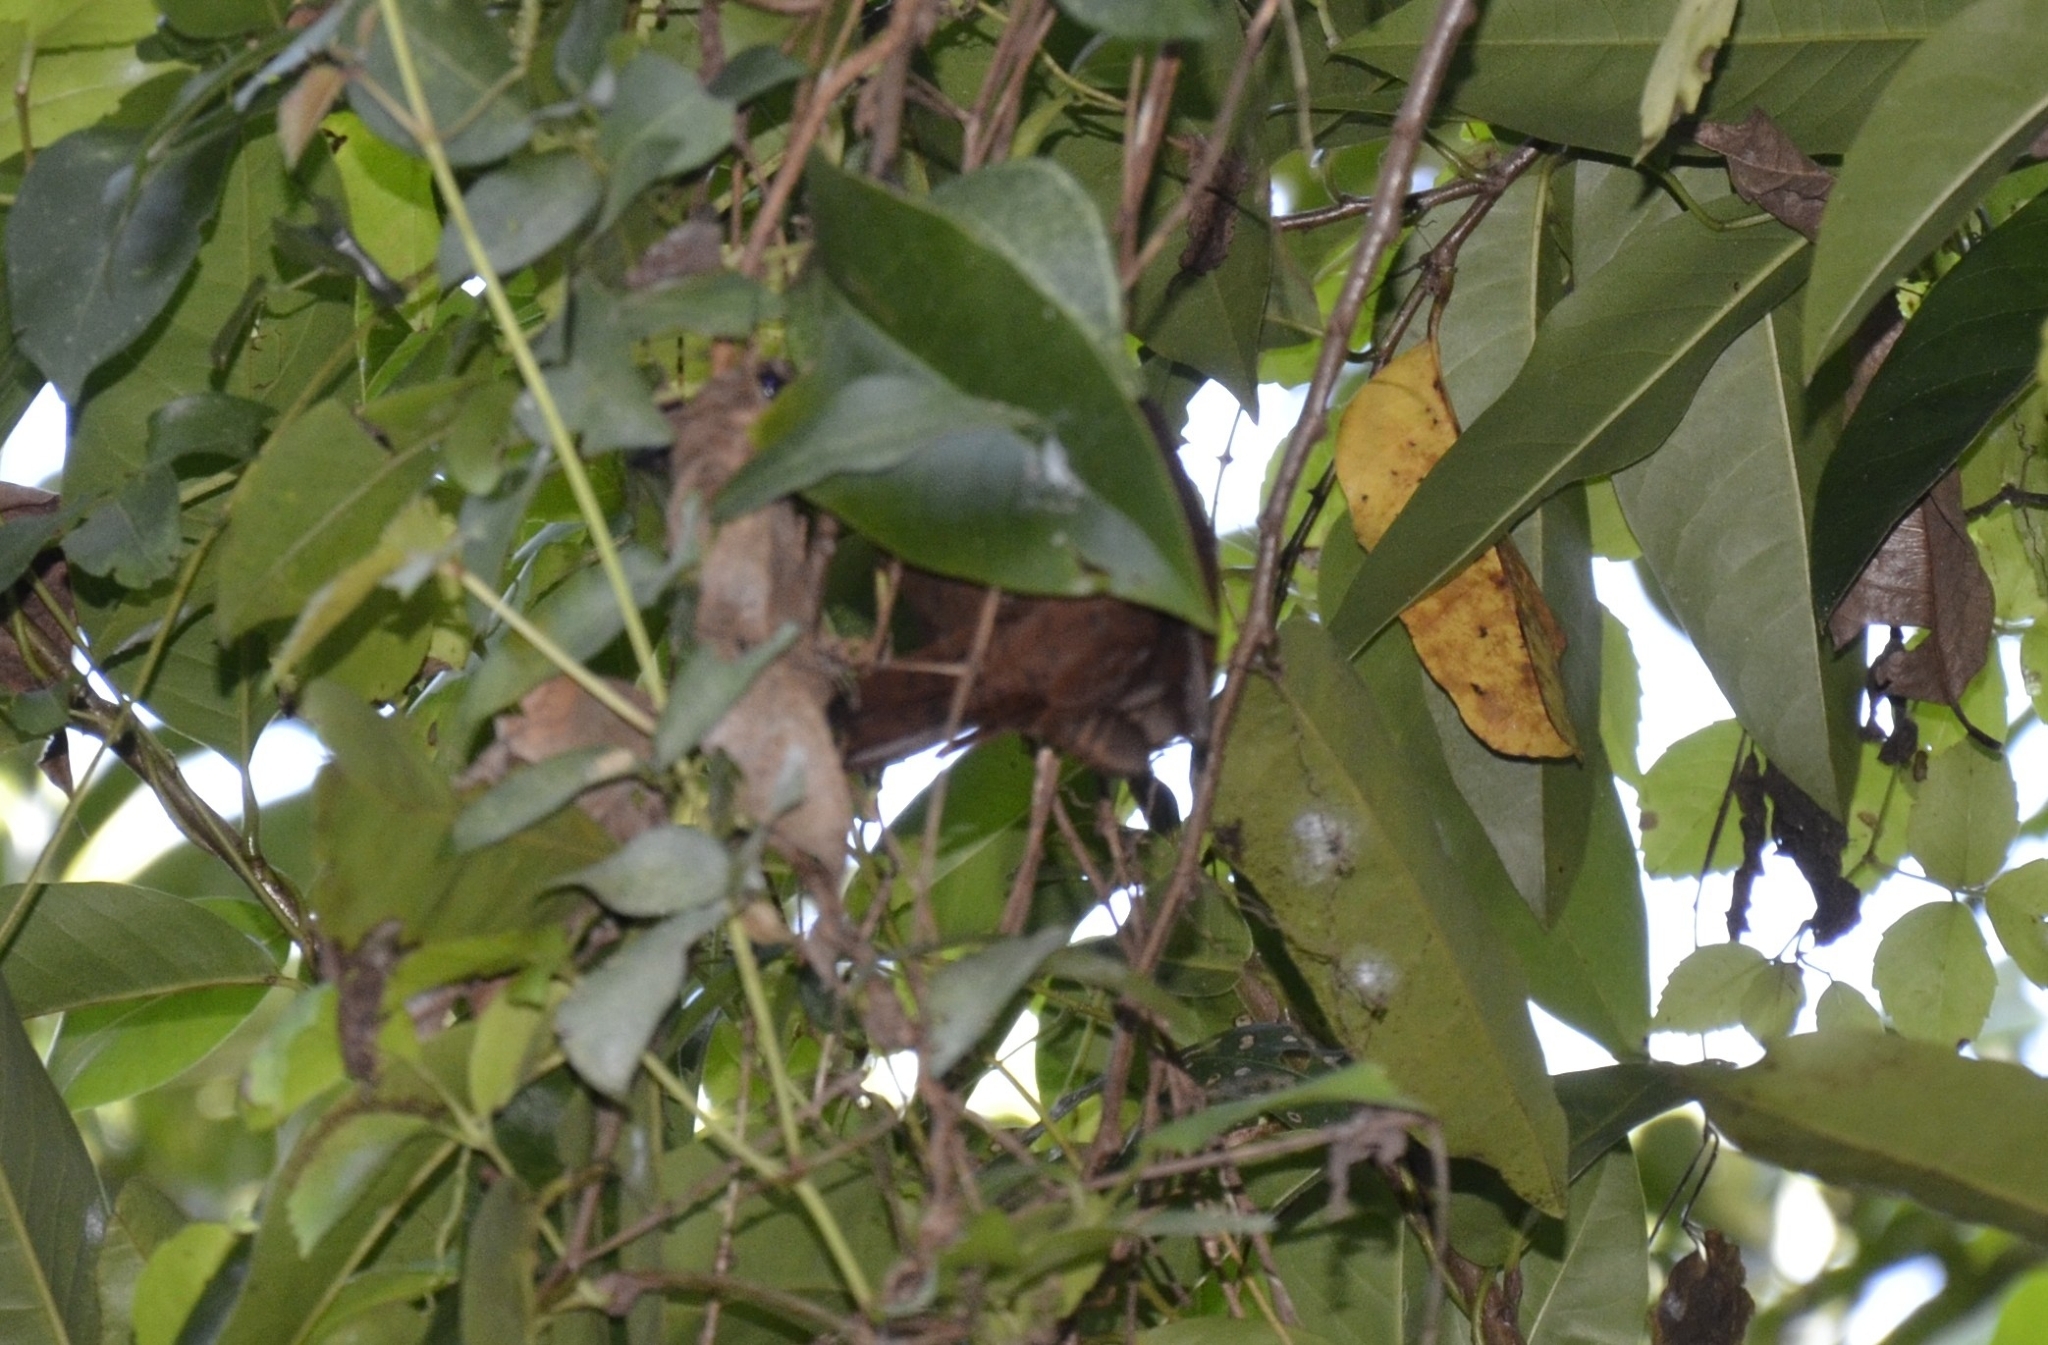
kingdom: Animalia
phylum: Chordata
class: Aves
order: Piciformes
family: Picidae
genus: Micropternus
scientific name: Micropternus brachyurus
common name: Rufous woodpecker
